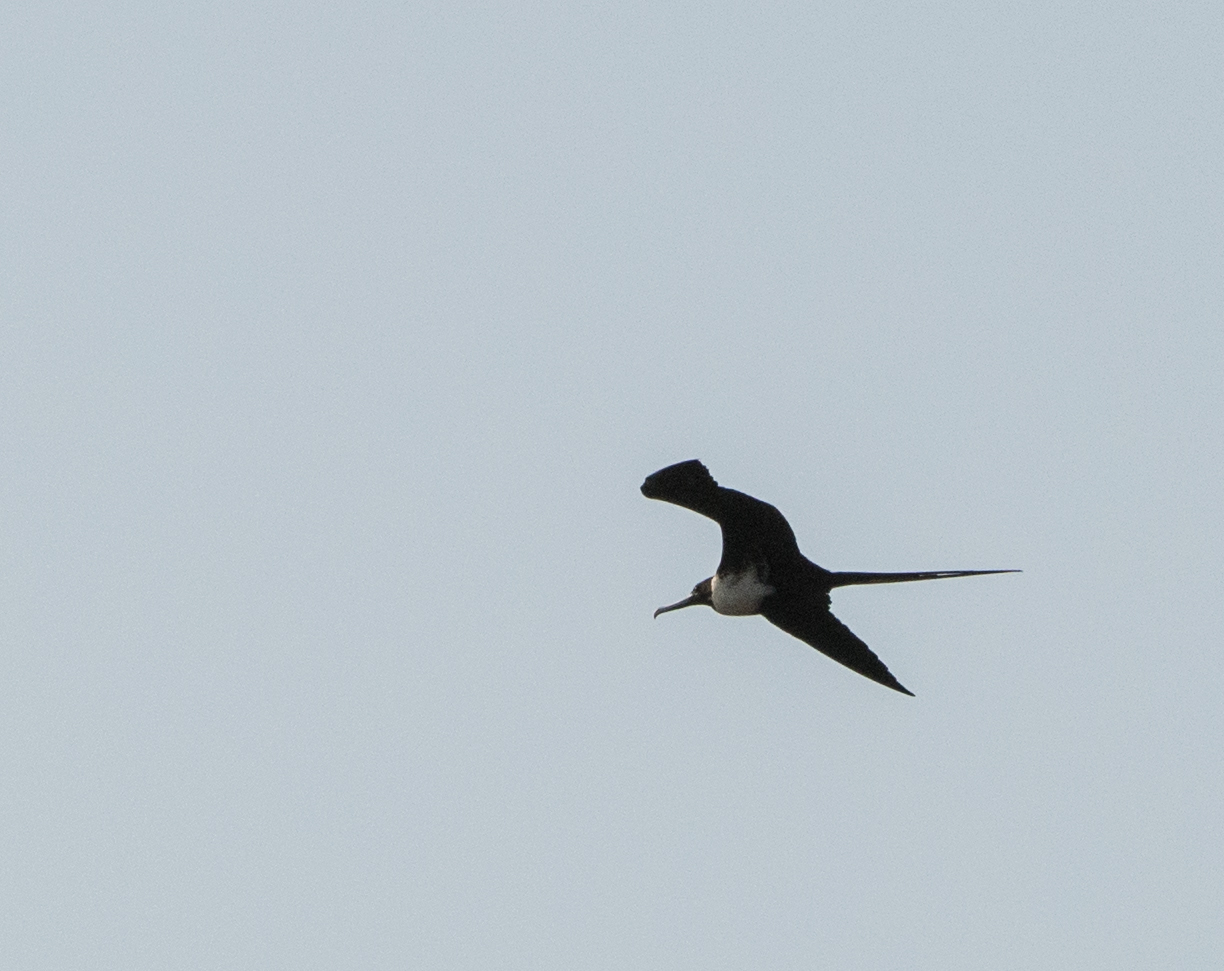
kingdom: Animalia
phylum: Chordata
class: Aves
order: Suliformes
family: Fregatidae
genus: Fregata
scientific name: Fregata magnificens
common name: Magnificent frigatebird
